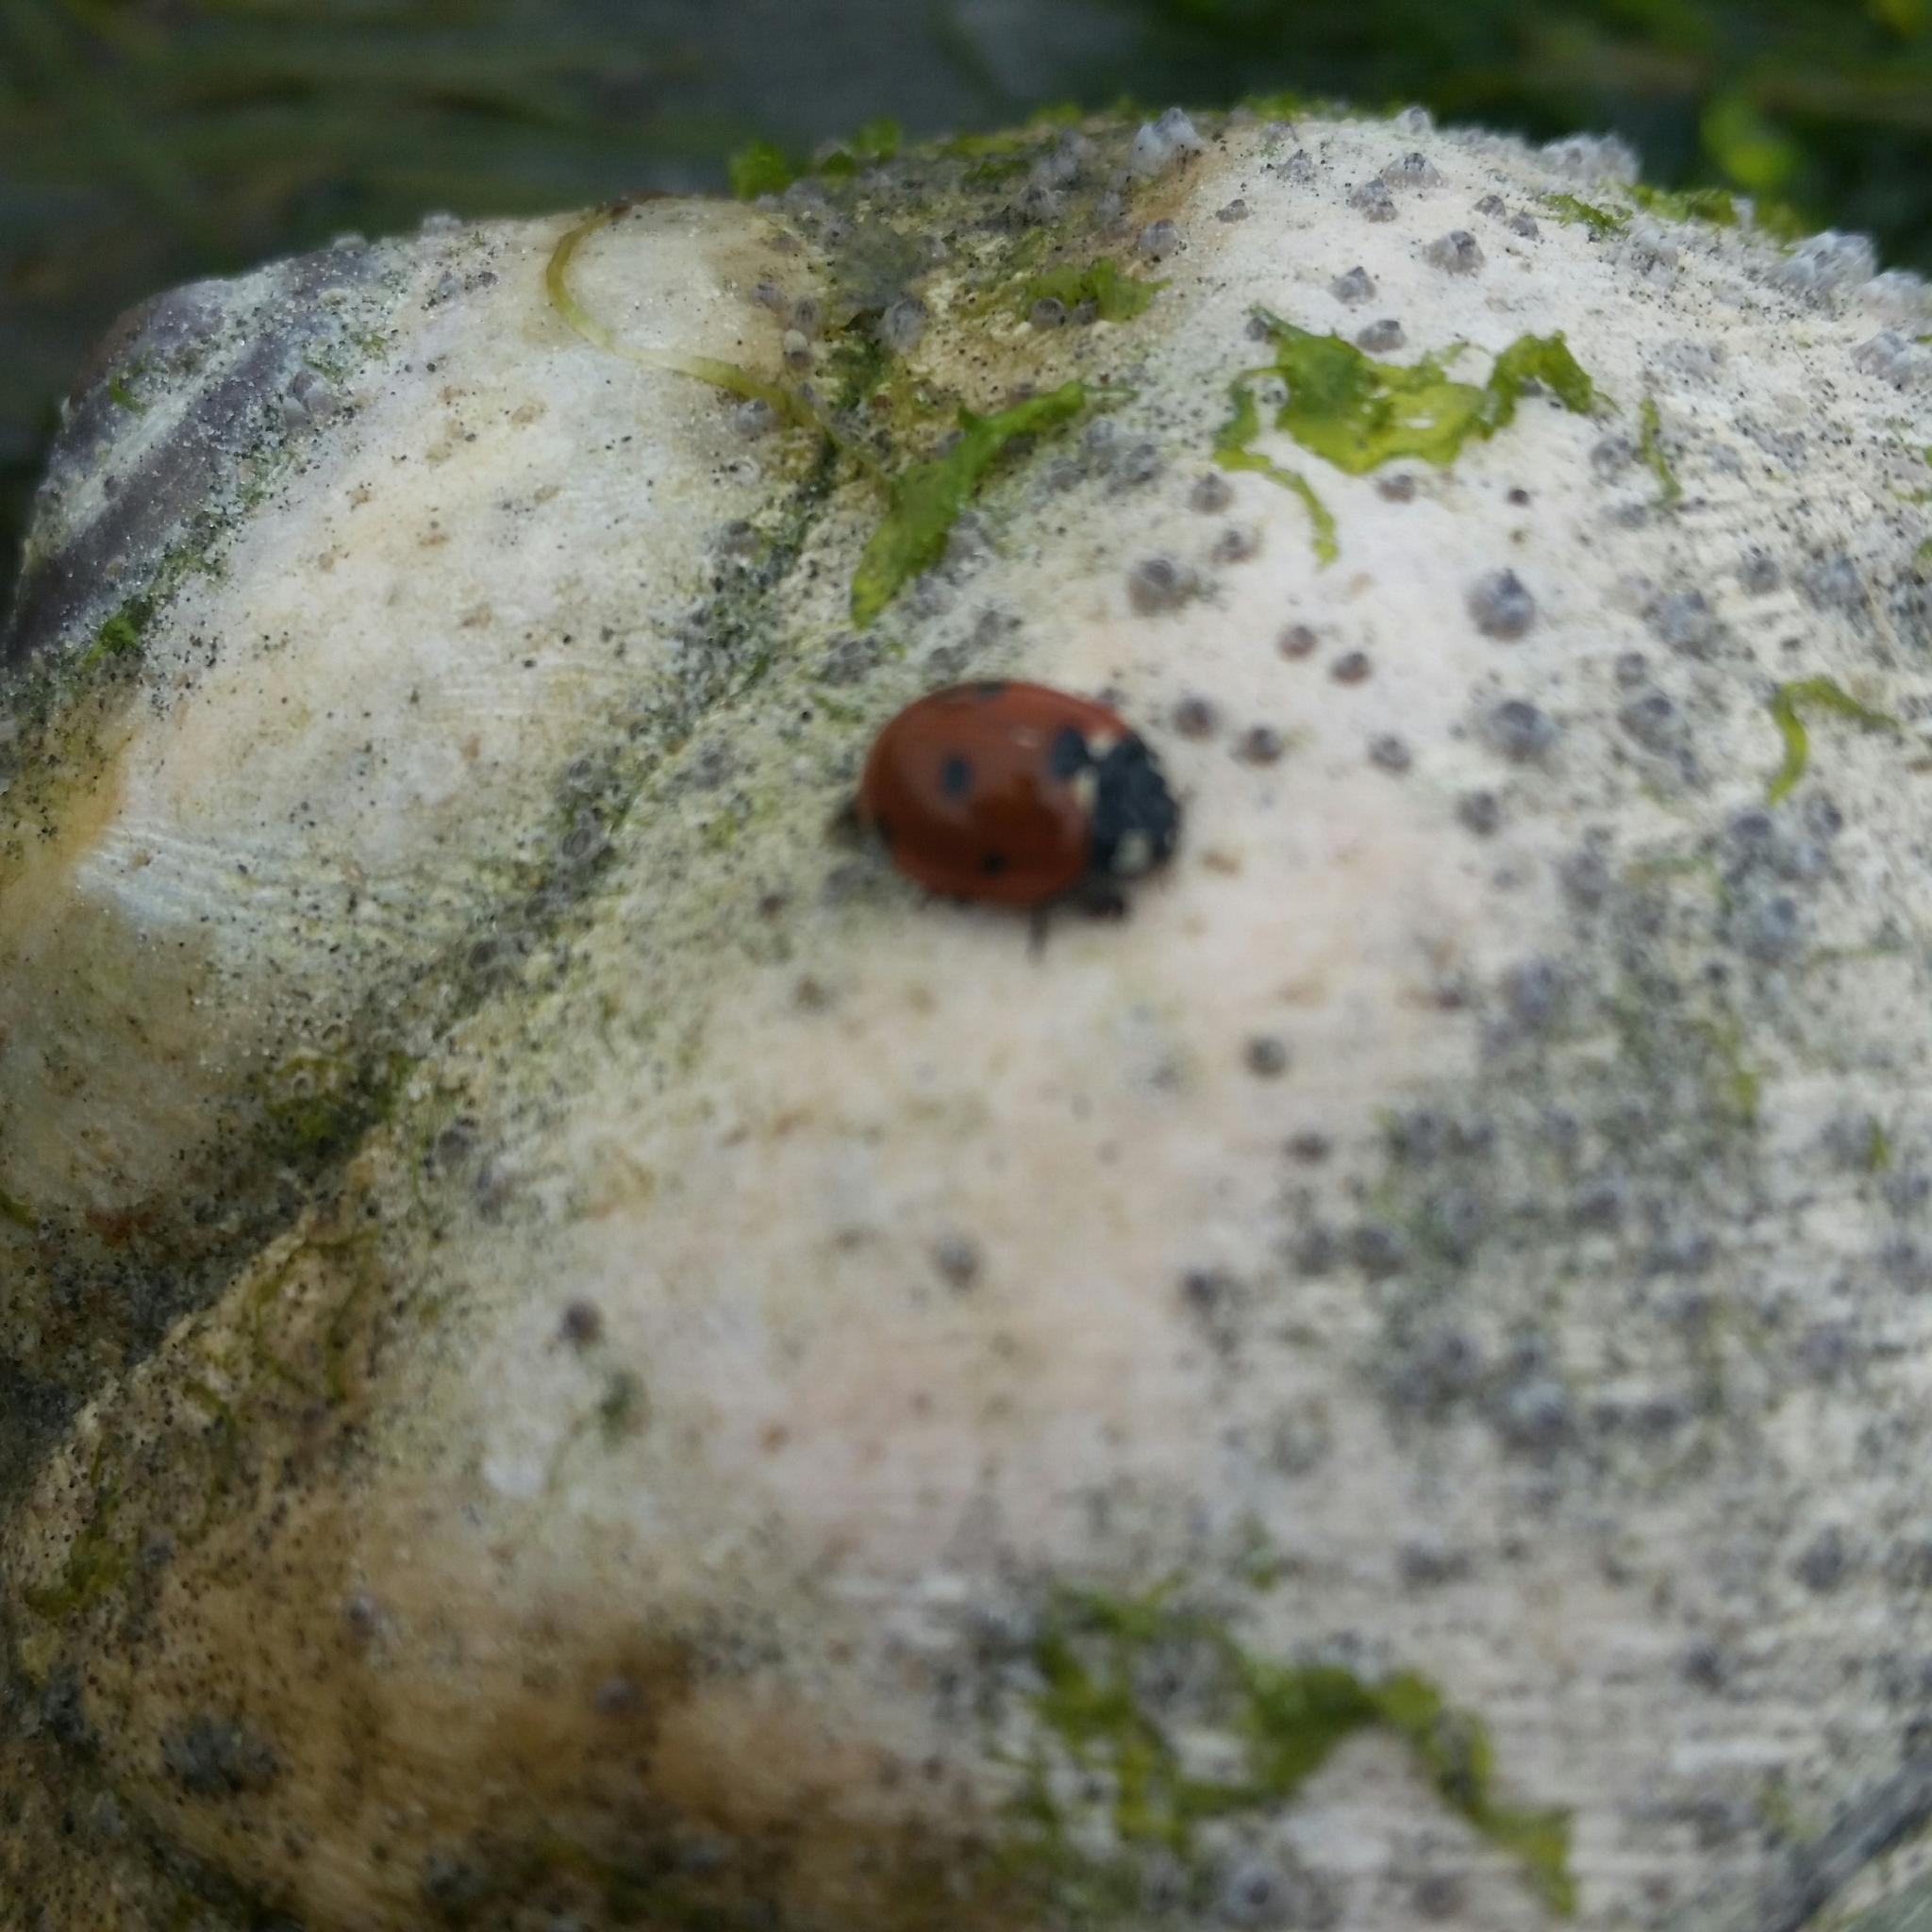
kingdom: Animalia
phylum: Arthropoda
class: Insecta
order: Coleoptera
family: Coccinellidae
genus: Coccinella
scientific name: Coccinella septempunctata
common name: Sevenspotted lady beetle
